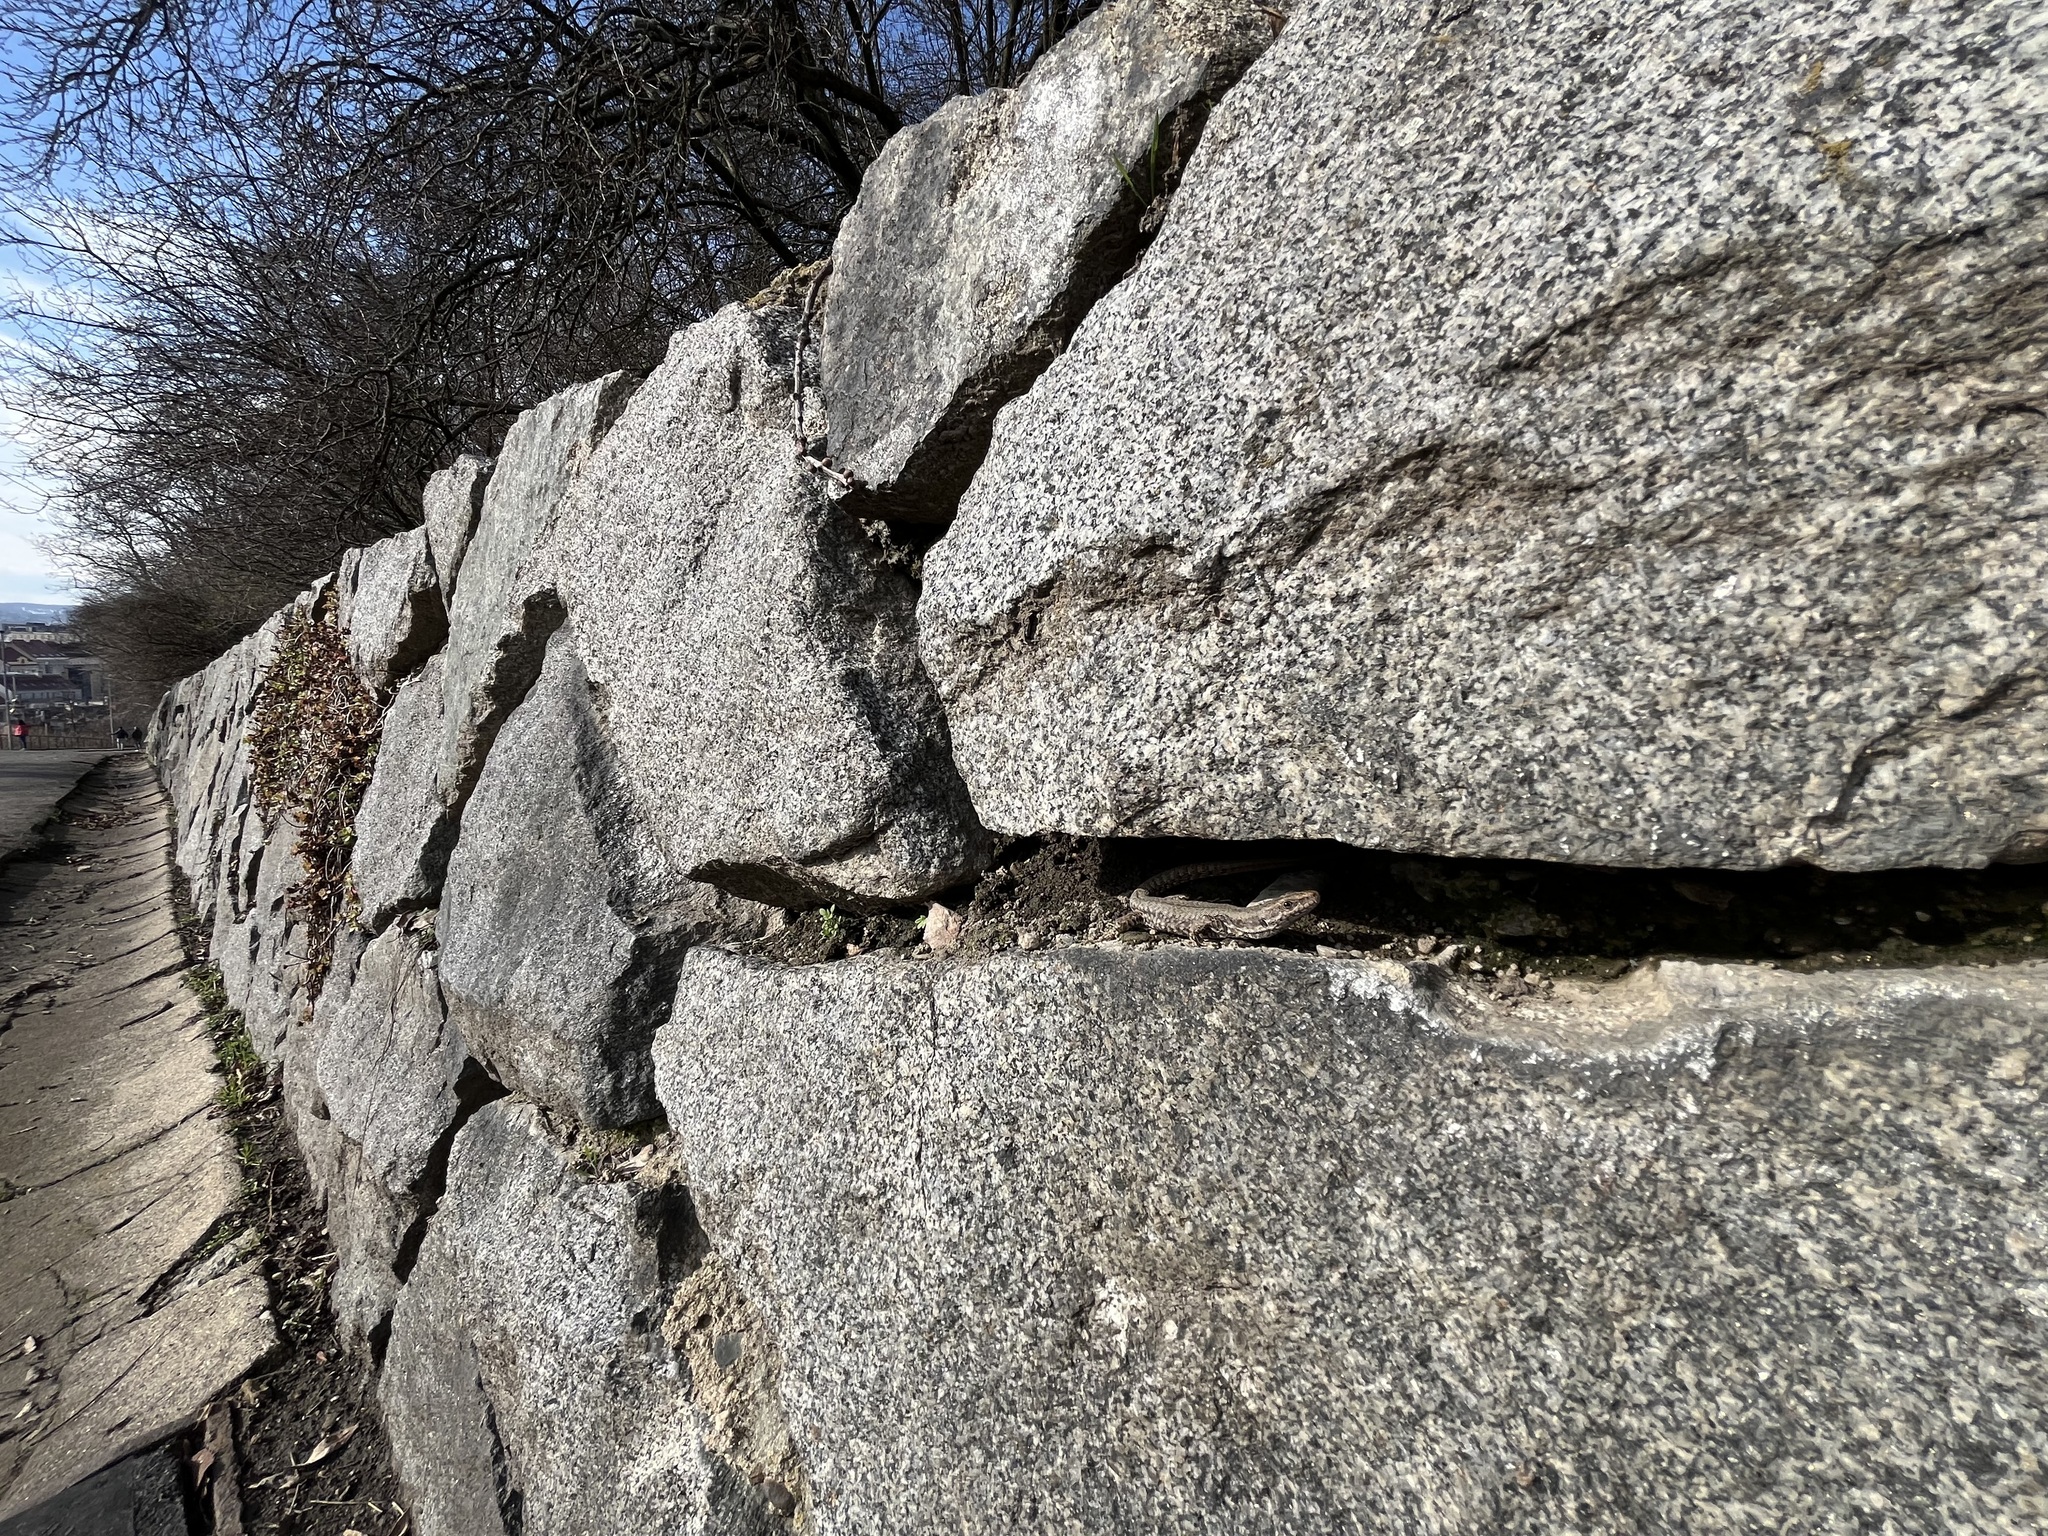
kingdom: Animalia
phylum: Chordata
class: Squamata
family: Lacertidae
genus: Podarcis
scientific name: Podarcis muralis
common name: Common wall lizard
